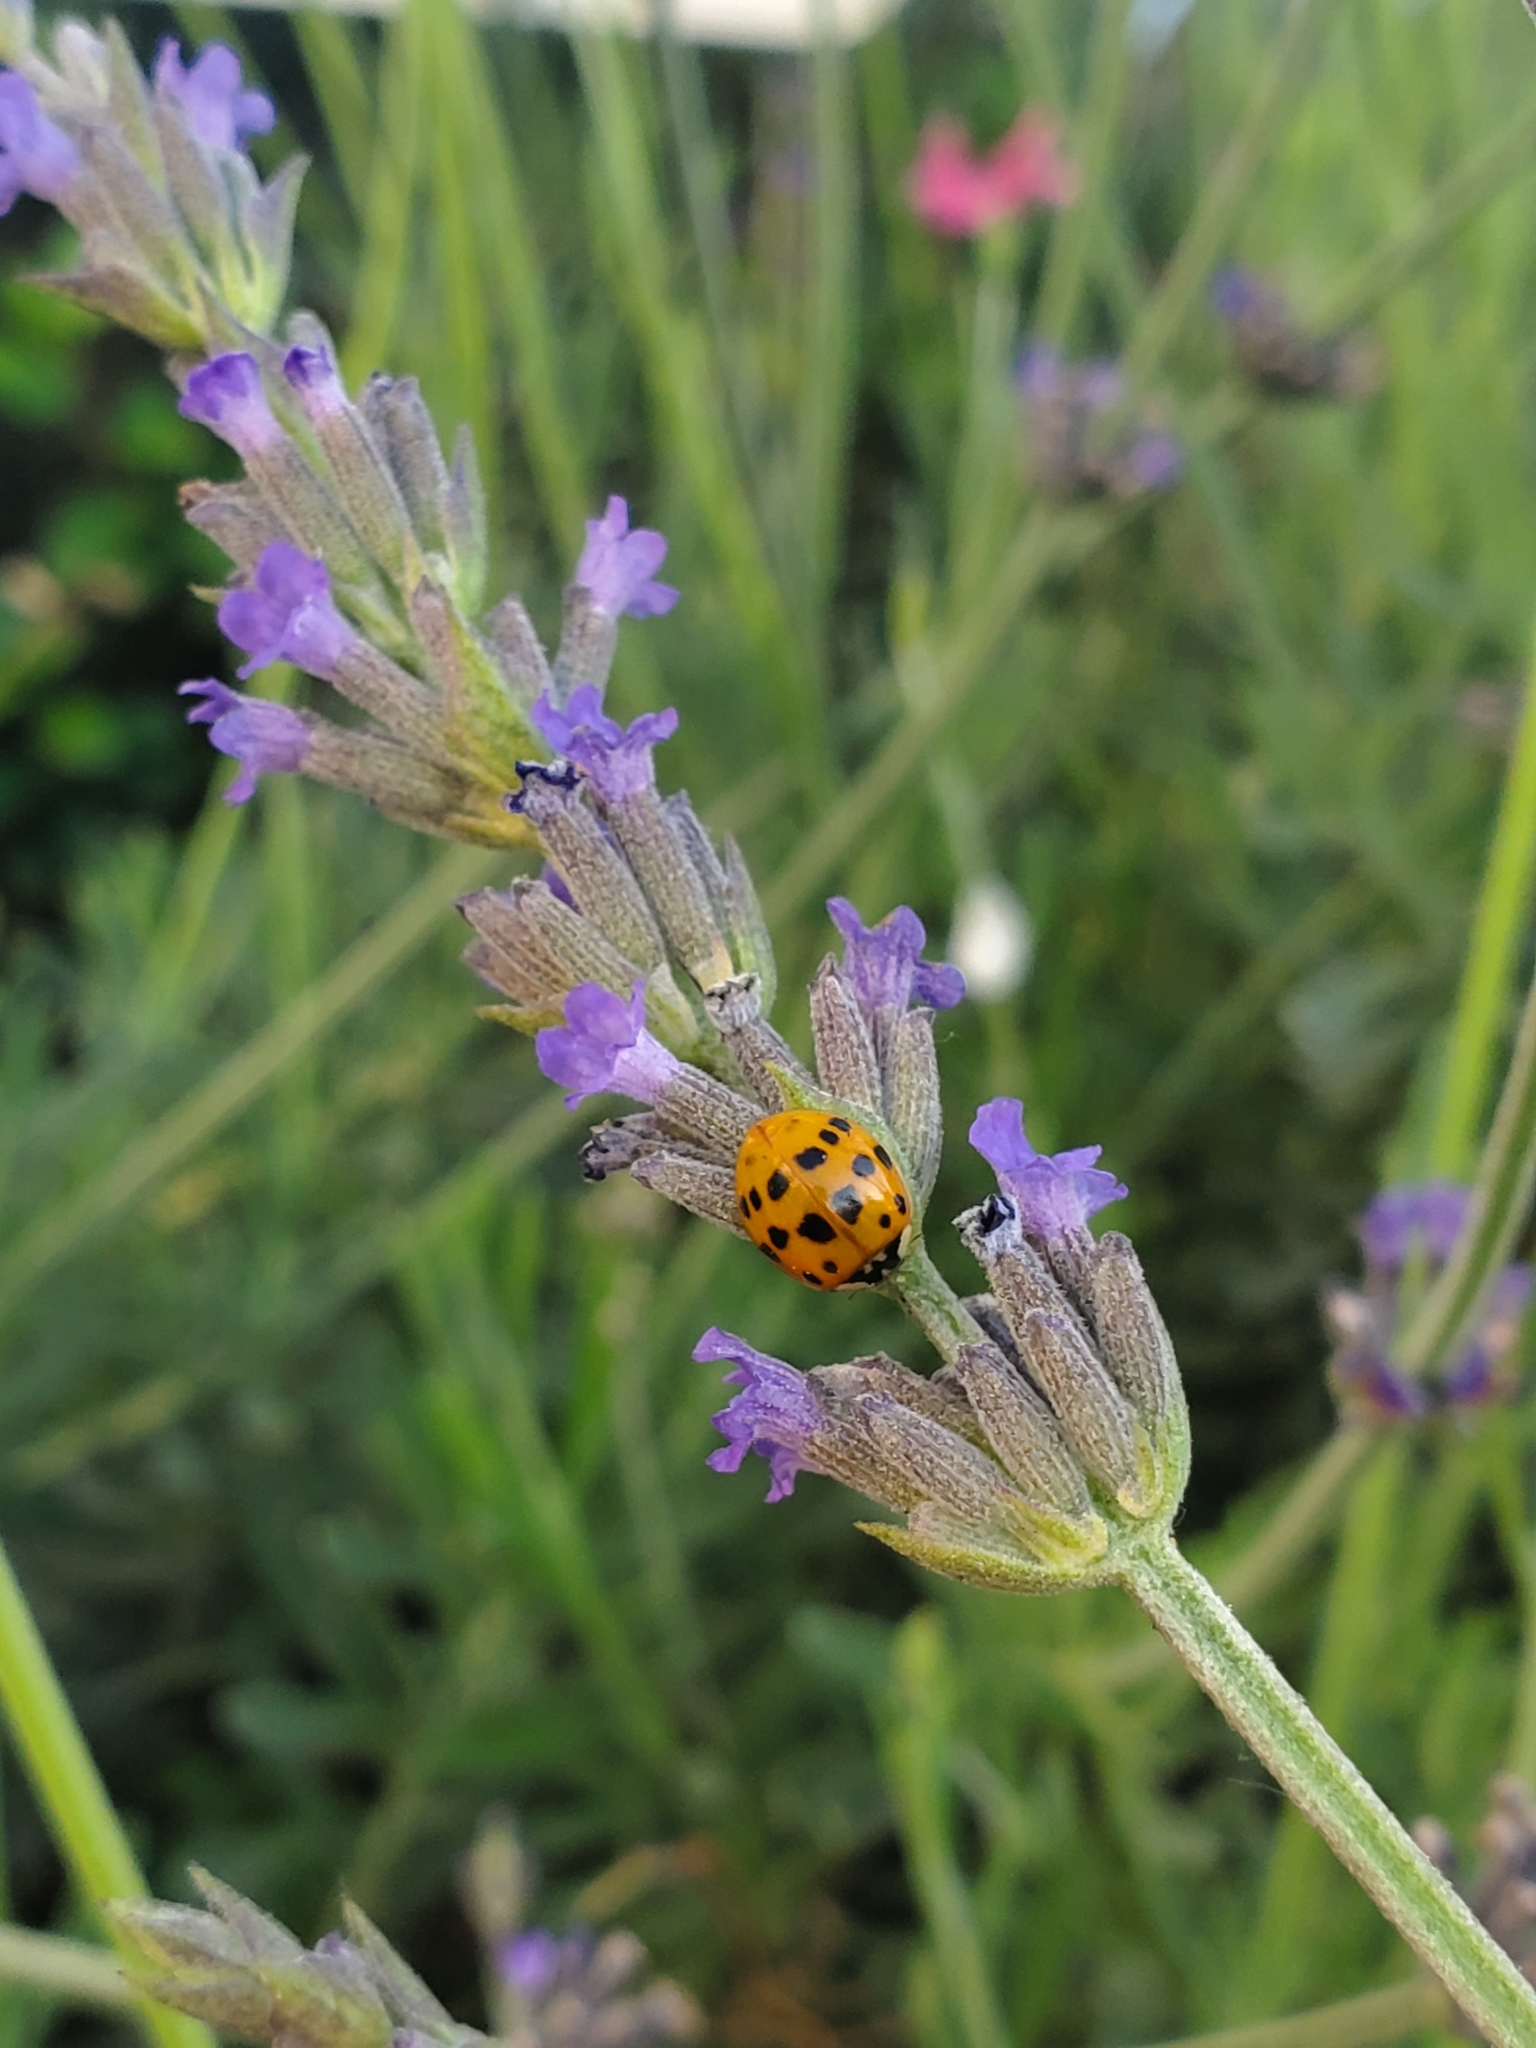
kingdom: Animalia
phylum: Arthropoda
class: Insecta
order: Coleoptera
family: Coccinellidae
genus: Harmonia
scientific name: Harmonia axyridis
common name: Harlequin ladybird
